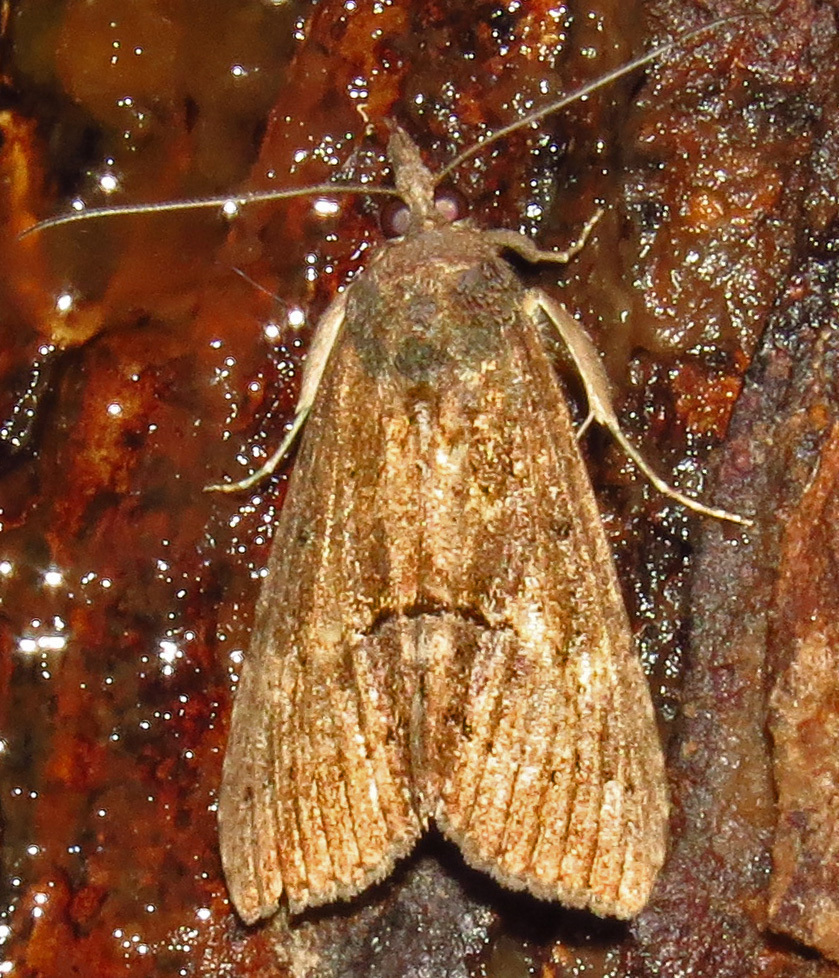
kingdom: Animalia
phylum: Arthropoda
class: Insecta
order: Lepidoptera
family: Erebidae
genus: Hypena
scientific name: Hypena scabra
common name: Green cloverworm
